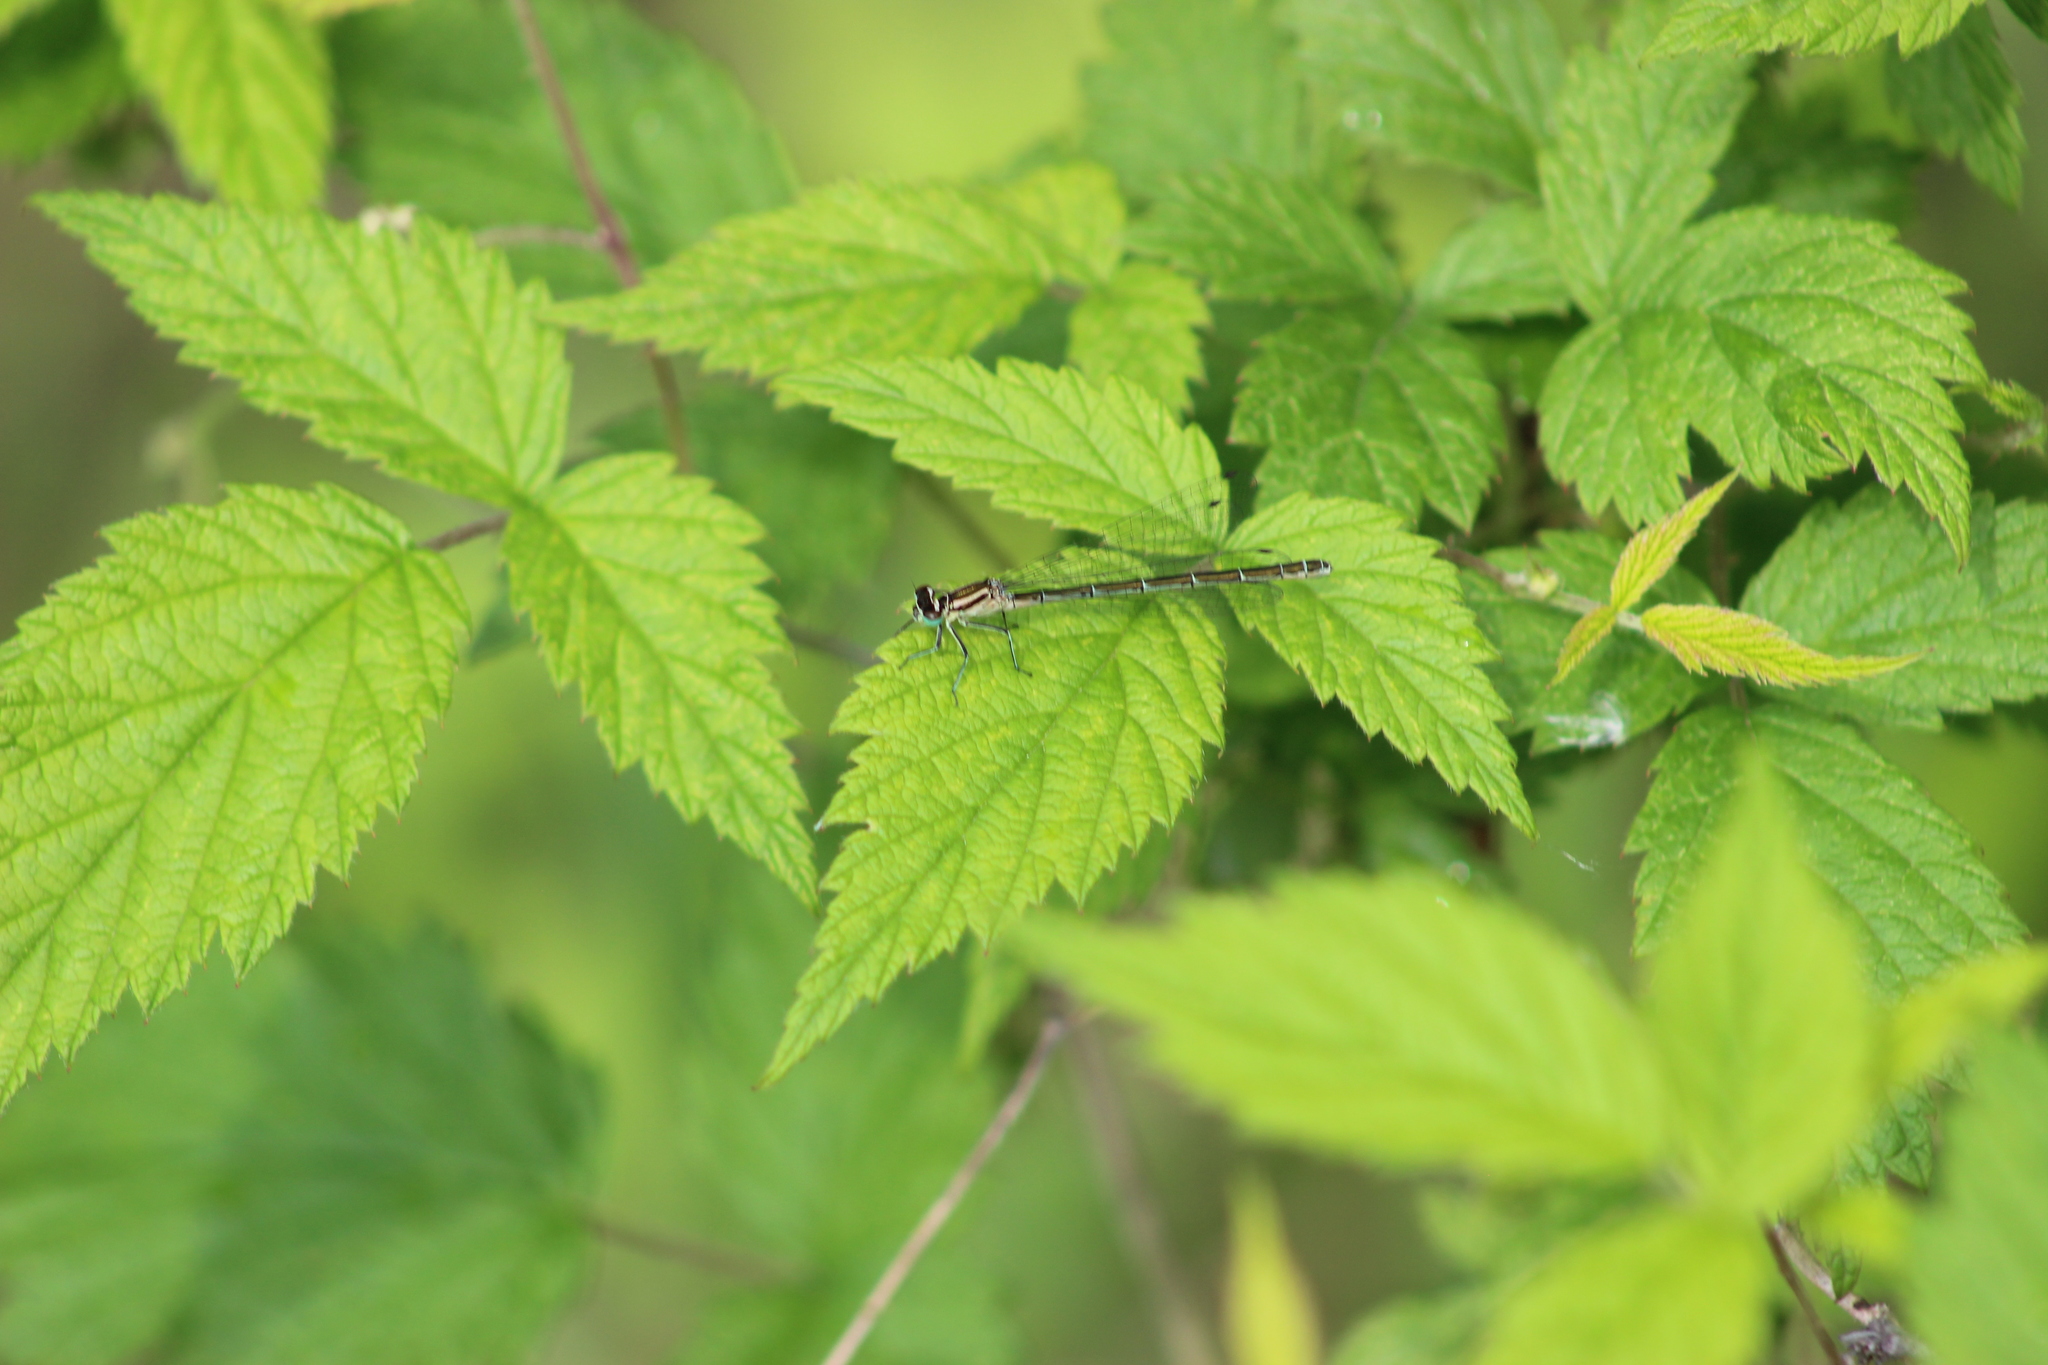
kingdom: Animalia
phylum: Arthropoda
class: Insecta
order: Odonata
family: Coenagrionidae
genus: Coenagrion
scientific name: Coenagrion hastulatum
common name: Spearhead bluet
